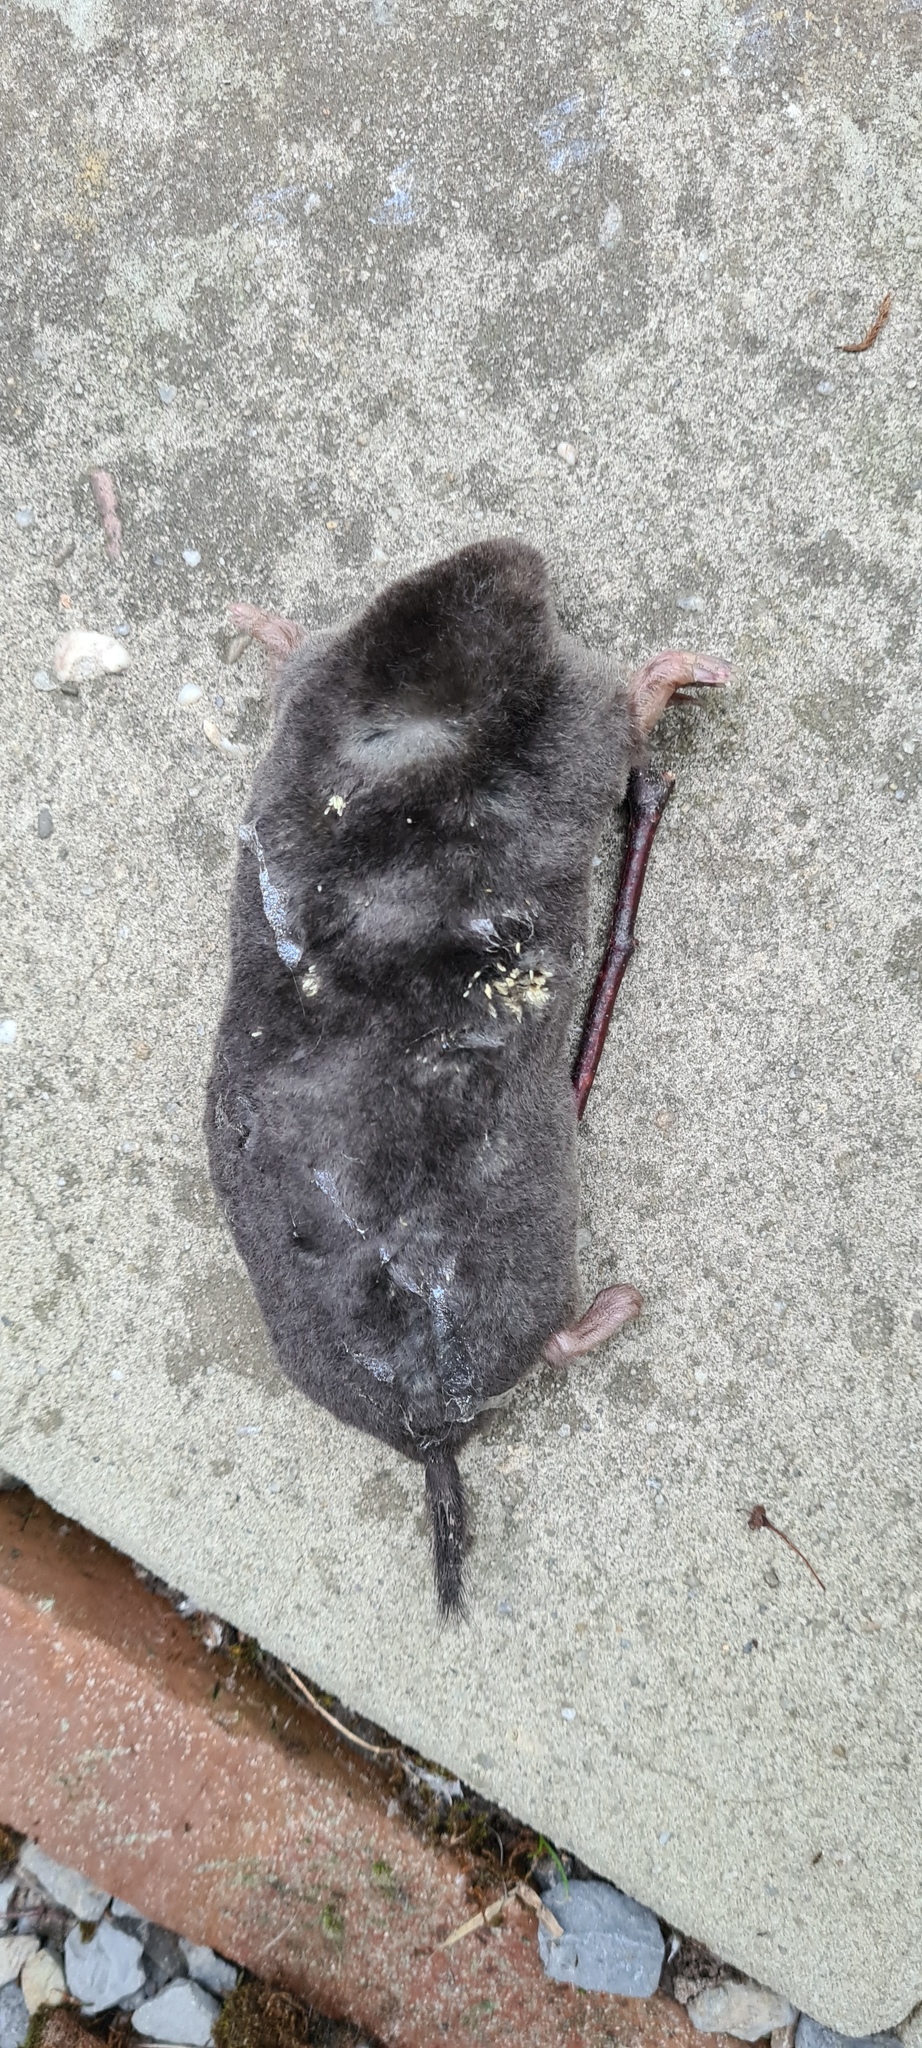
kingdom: Animalia
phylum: Chordata
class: Mammalia
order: Soricomorpha
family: Talpidae
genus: Talpa
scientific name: Talpa europaea
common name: European mole
